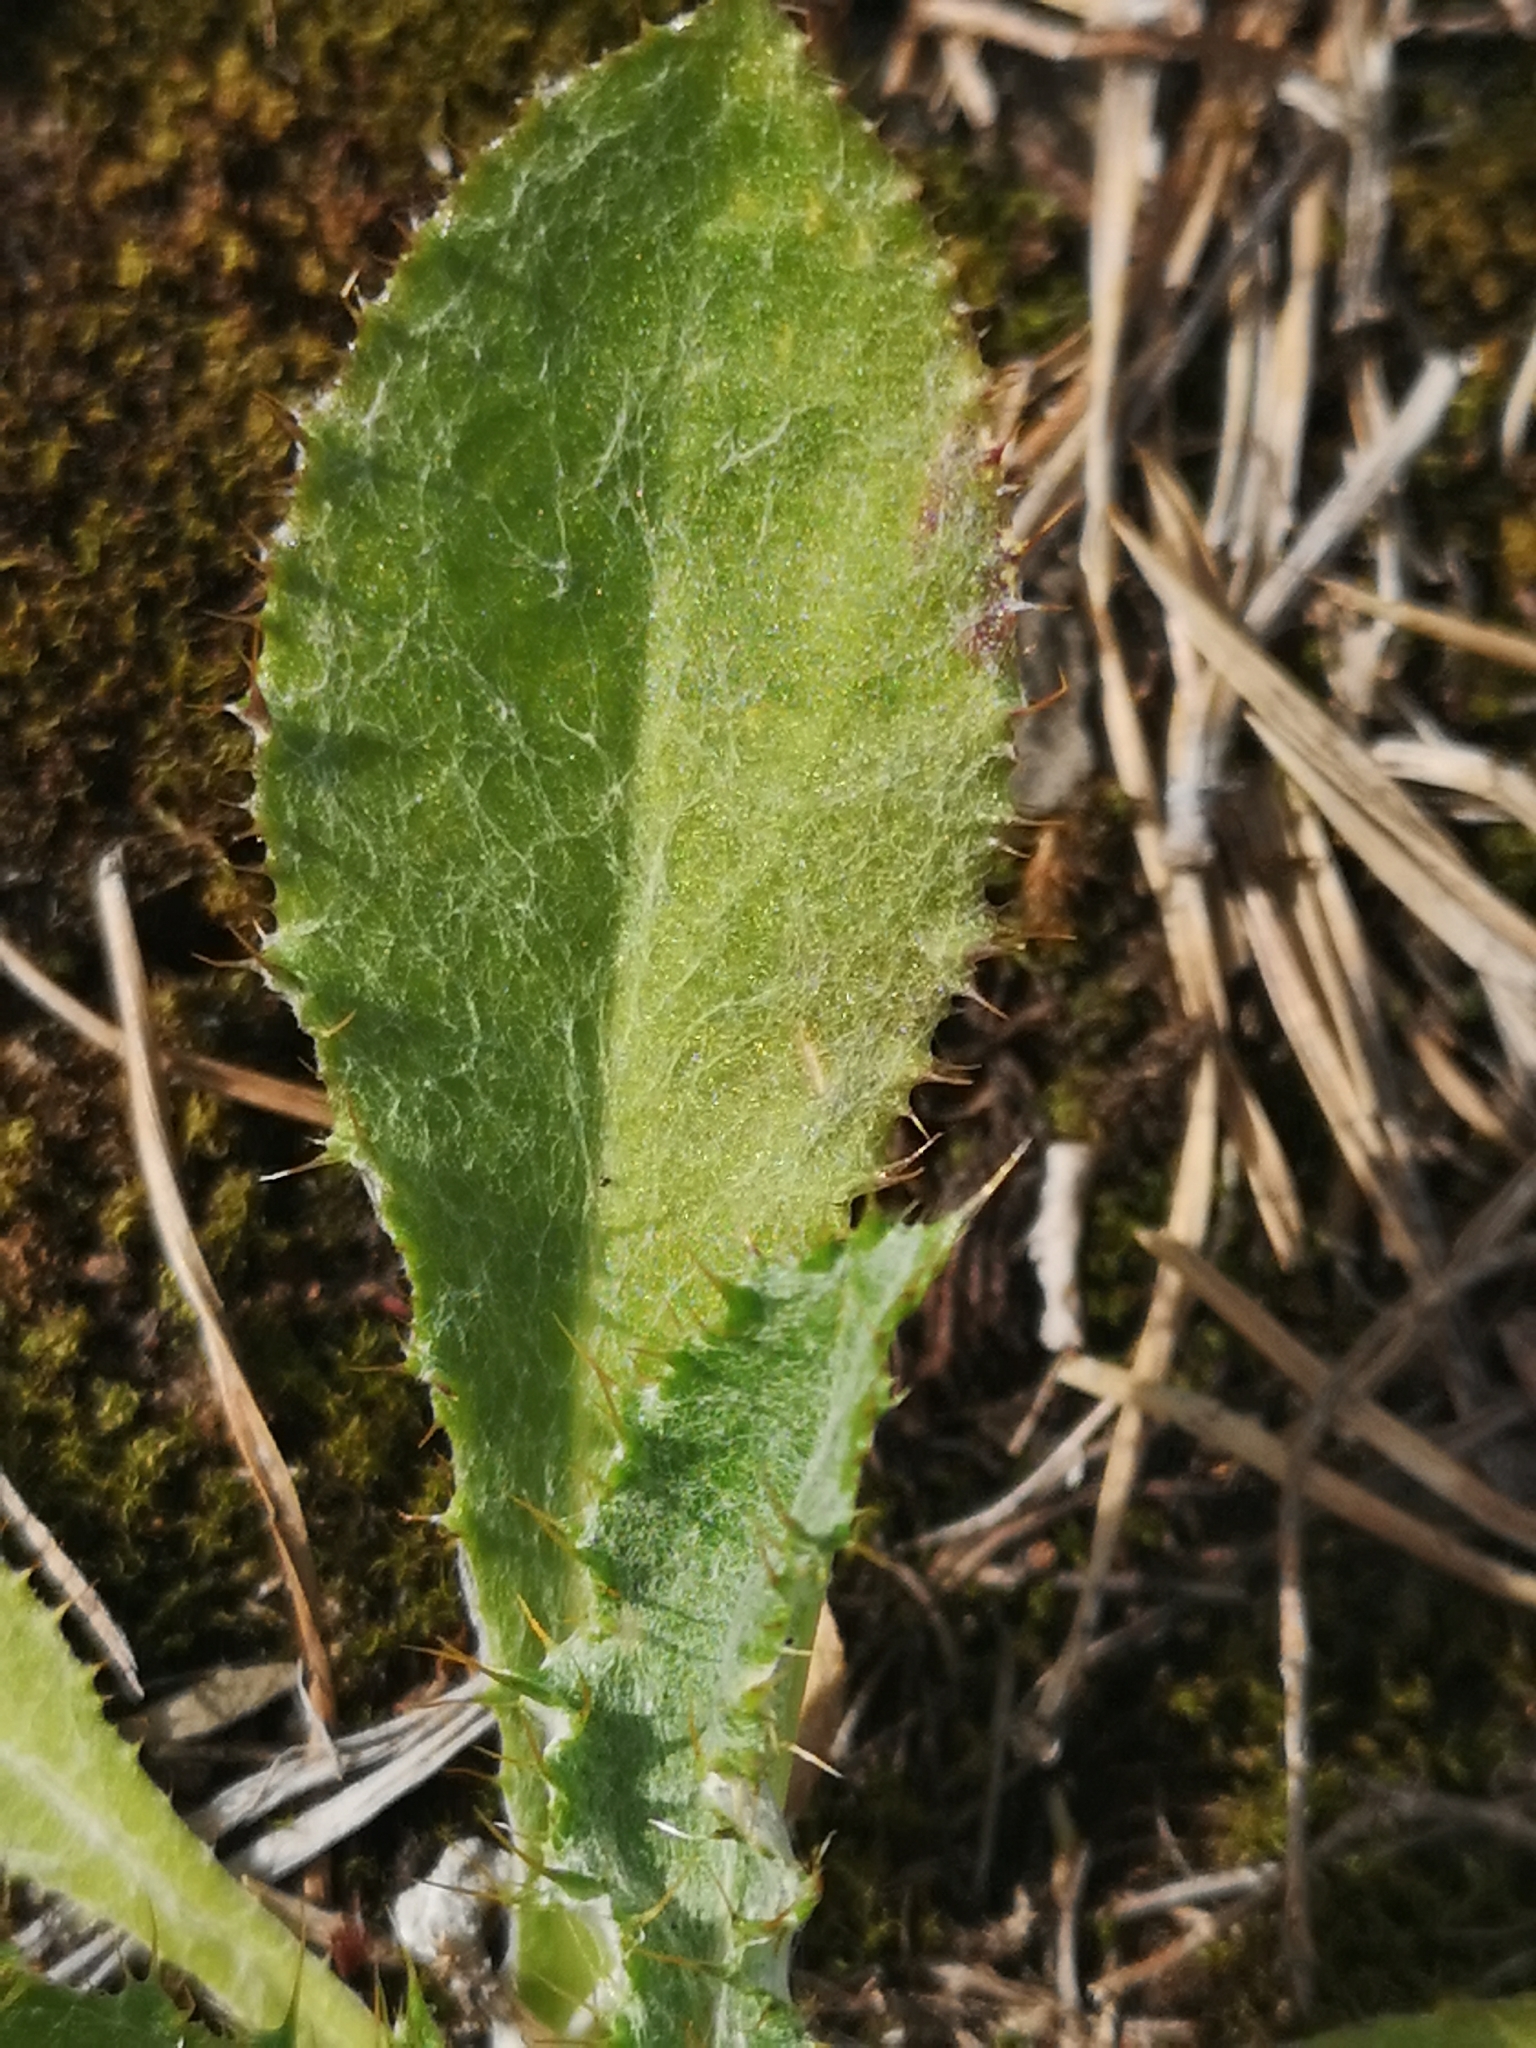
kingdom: Plantae
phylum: Tracheophyta
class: Magnoliopsida
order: Asterales
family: Asteraceae
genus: Carlina
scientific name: Carlina vulgaris
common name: Carline thistle
